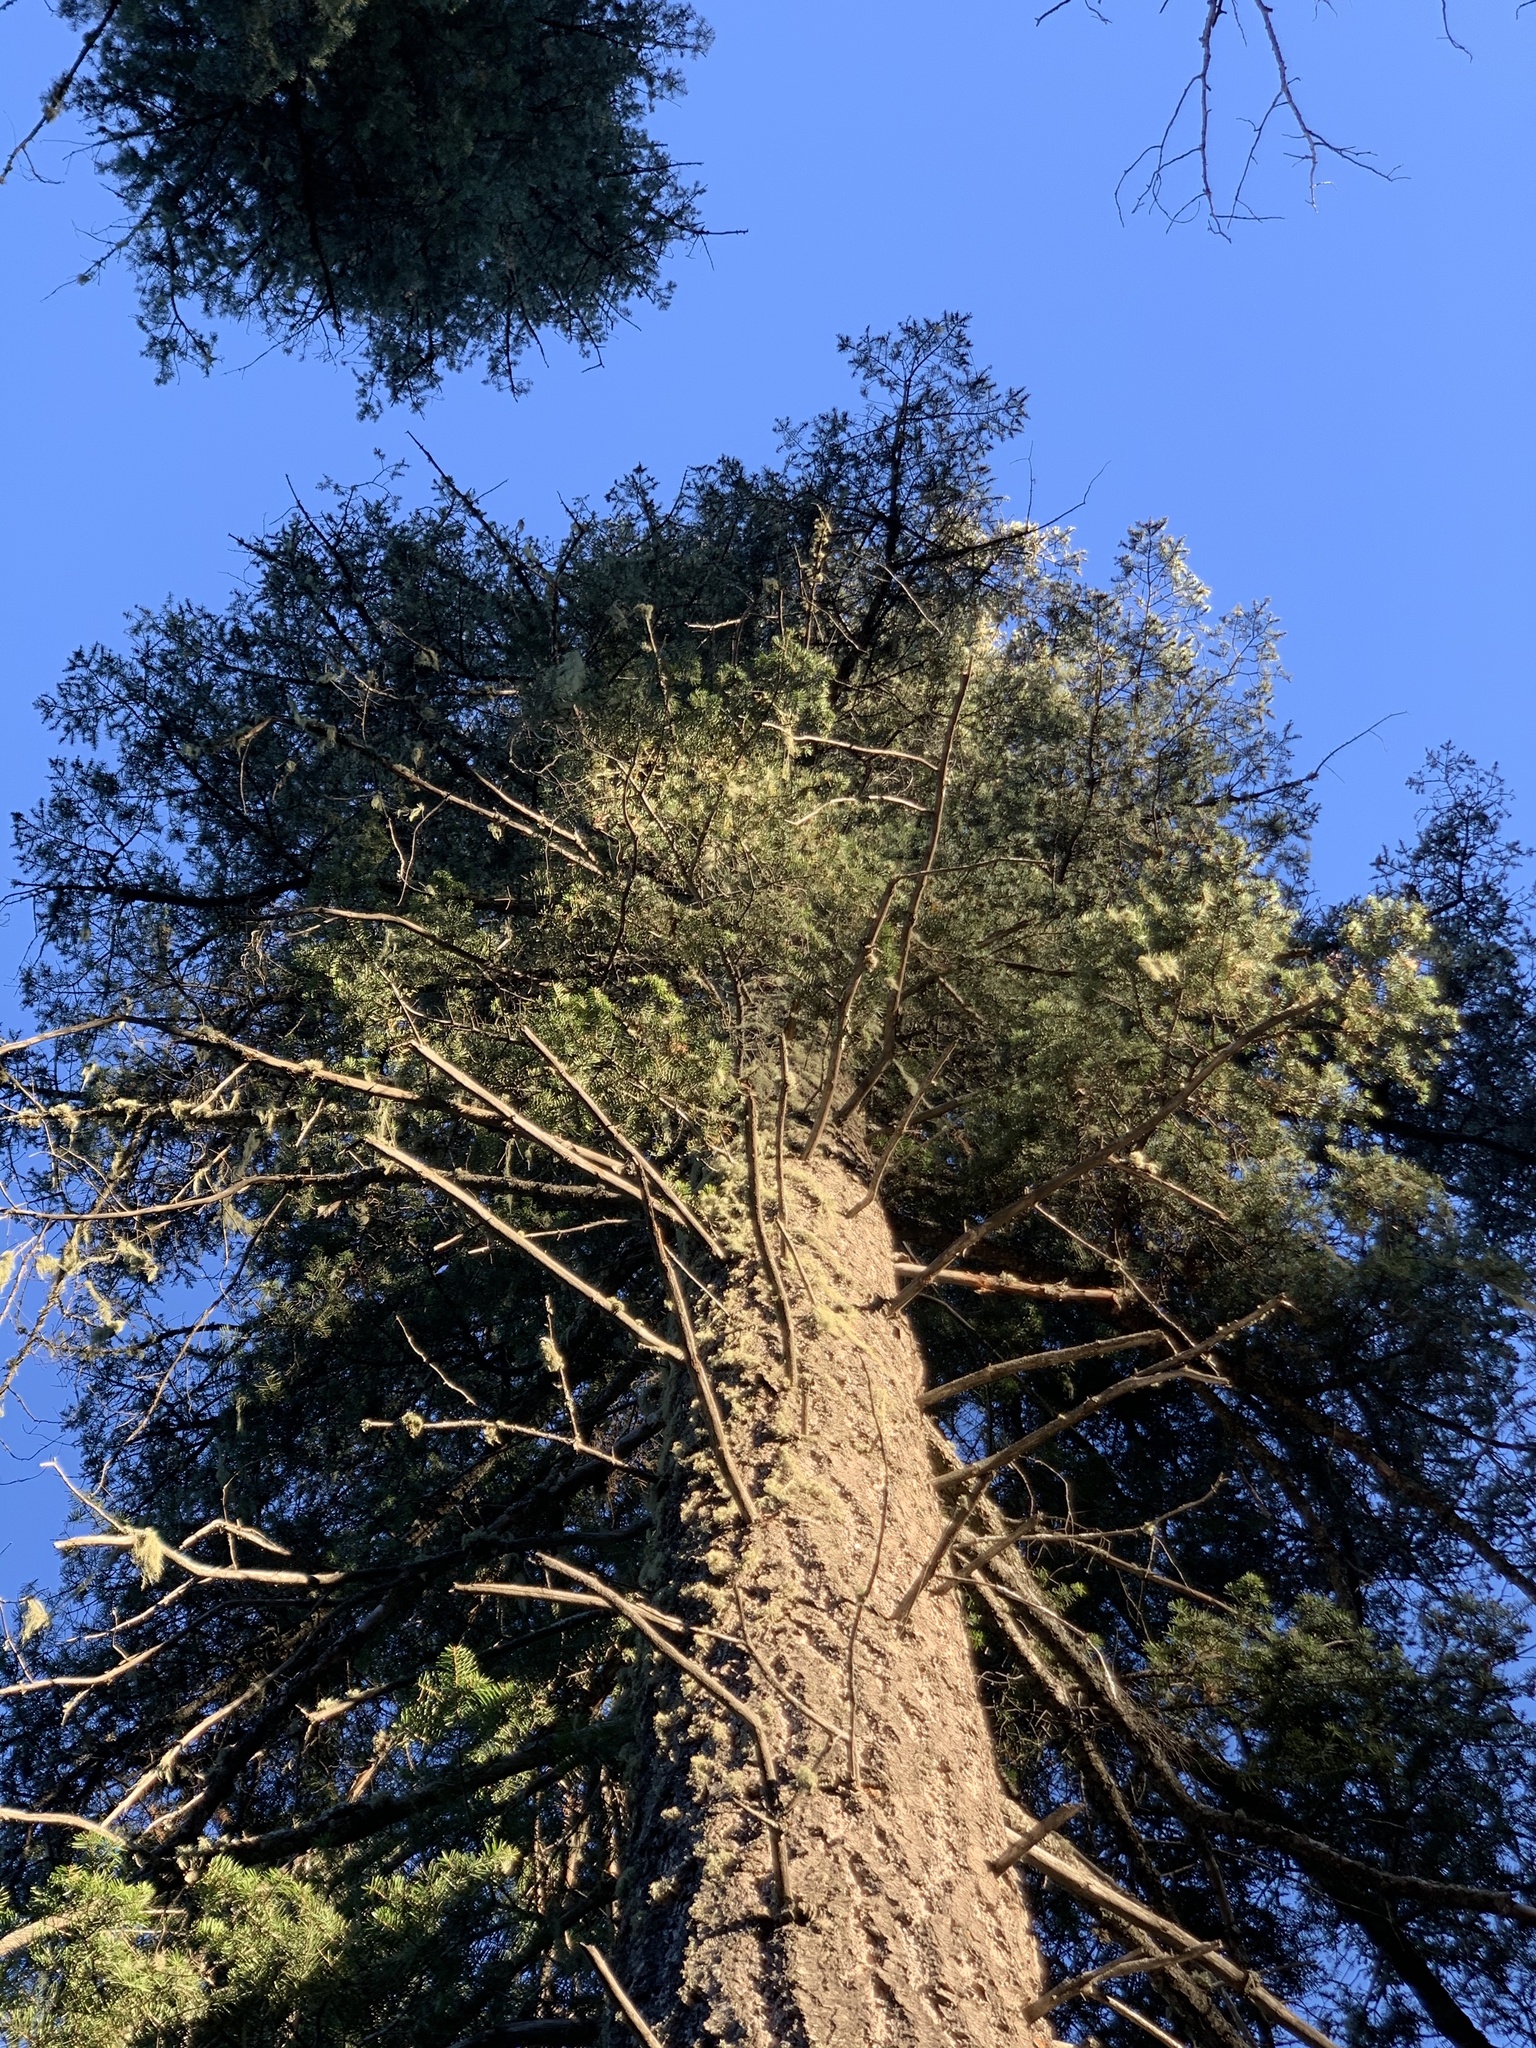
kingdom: Plantae
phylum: Tracheophyta
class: Pinopsida
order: Pinales
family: Pinaceae
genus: Abies
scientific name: Abies concolor
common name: Colorado fir
